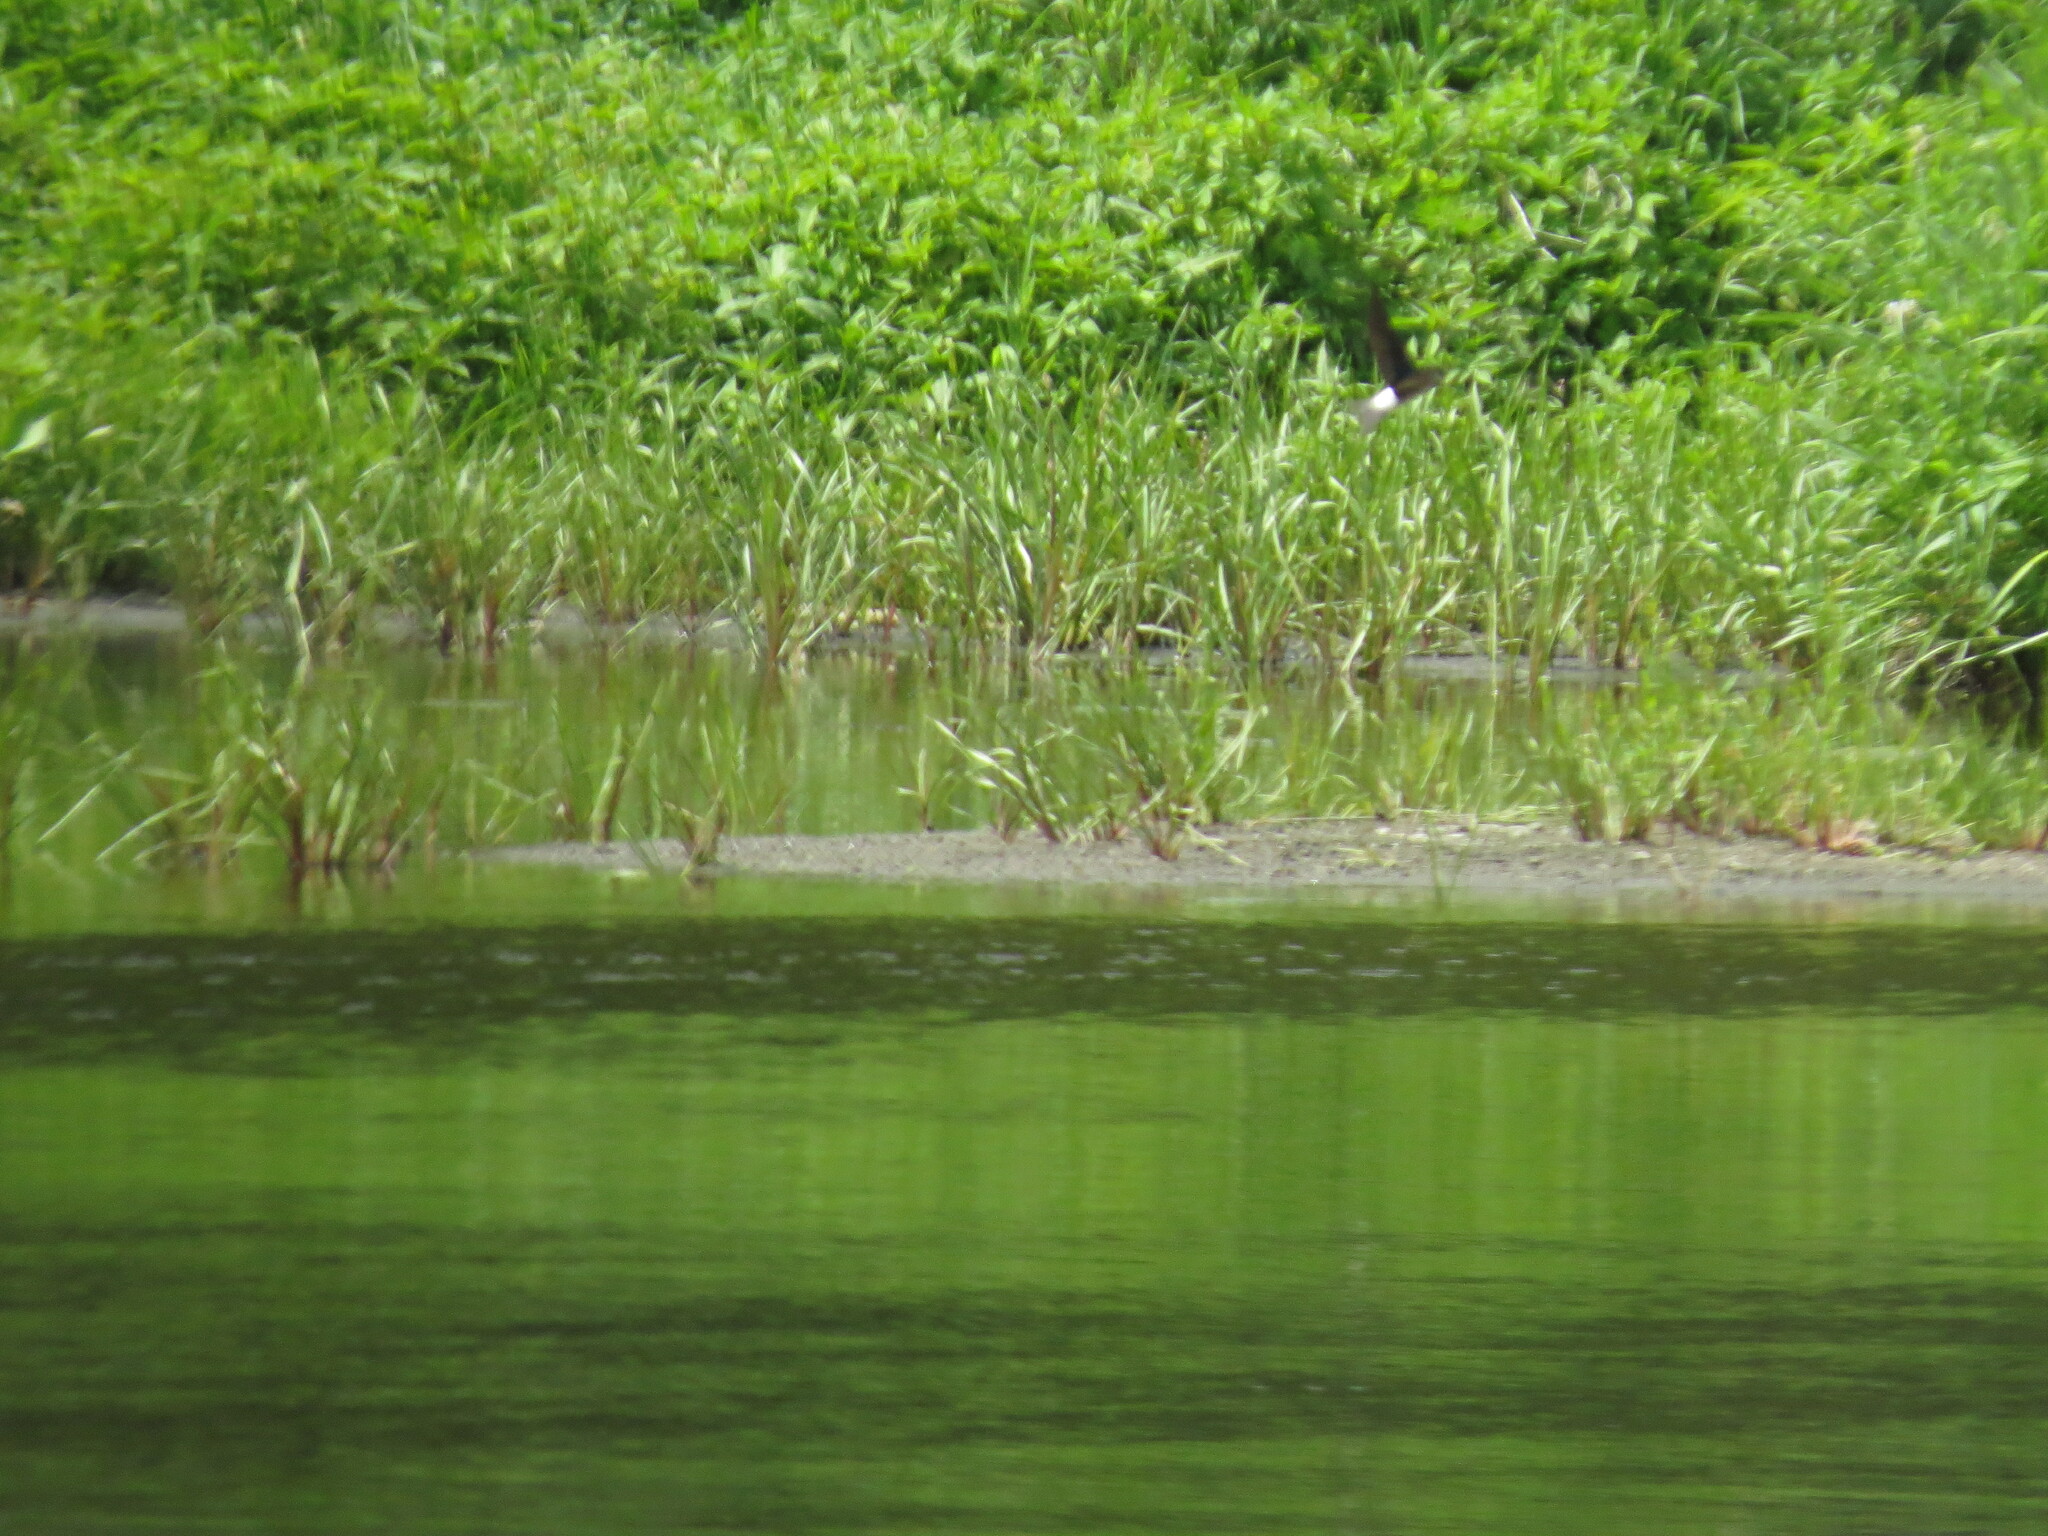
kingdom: Animalia
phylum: Chordata
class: Aves
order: Passeriformes
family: Hirundinidae
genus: Delichon
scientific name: Delichon urbicum
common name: Common house martin
